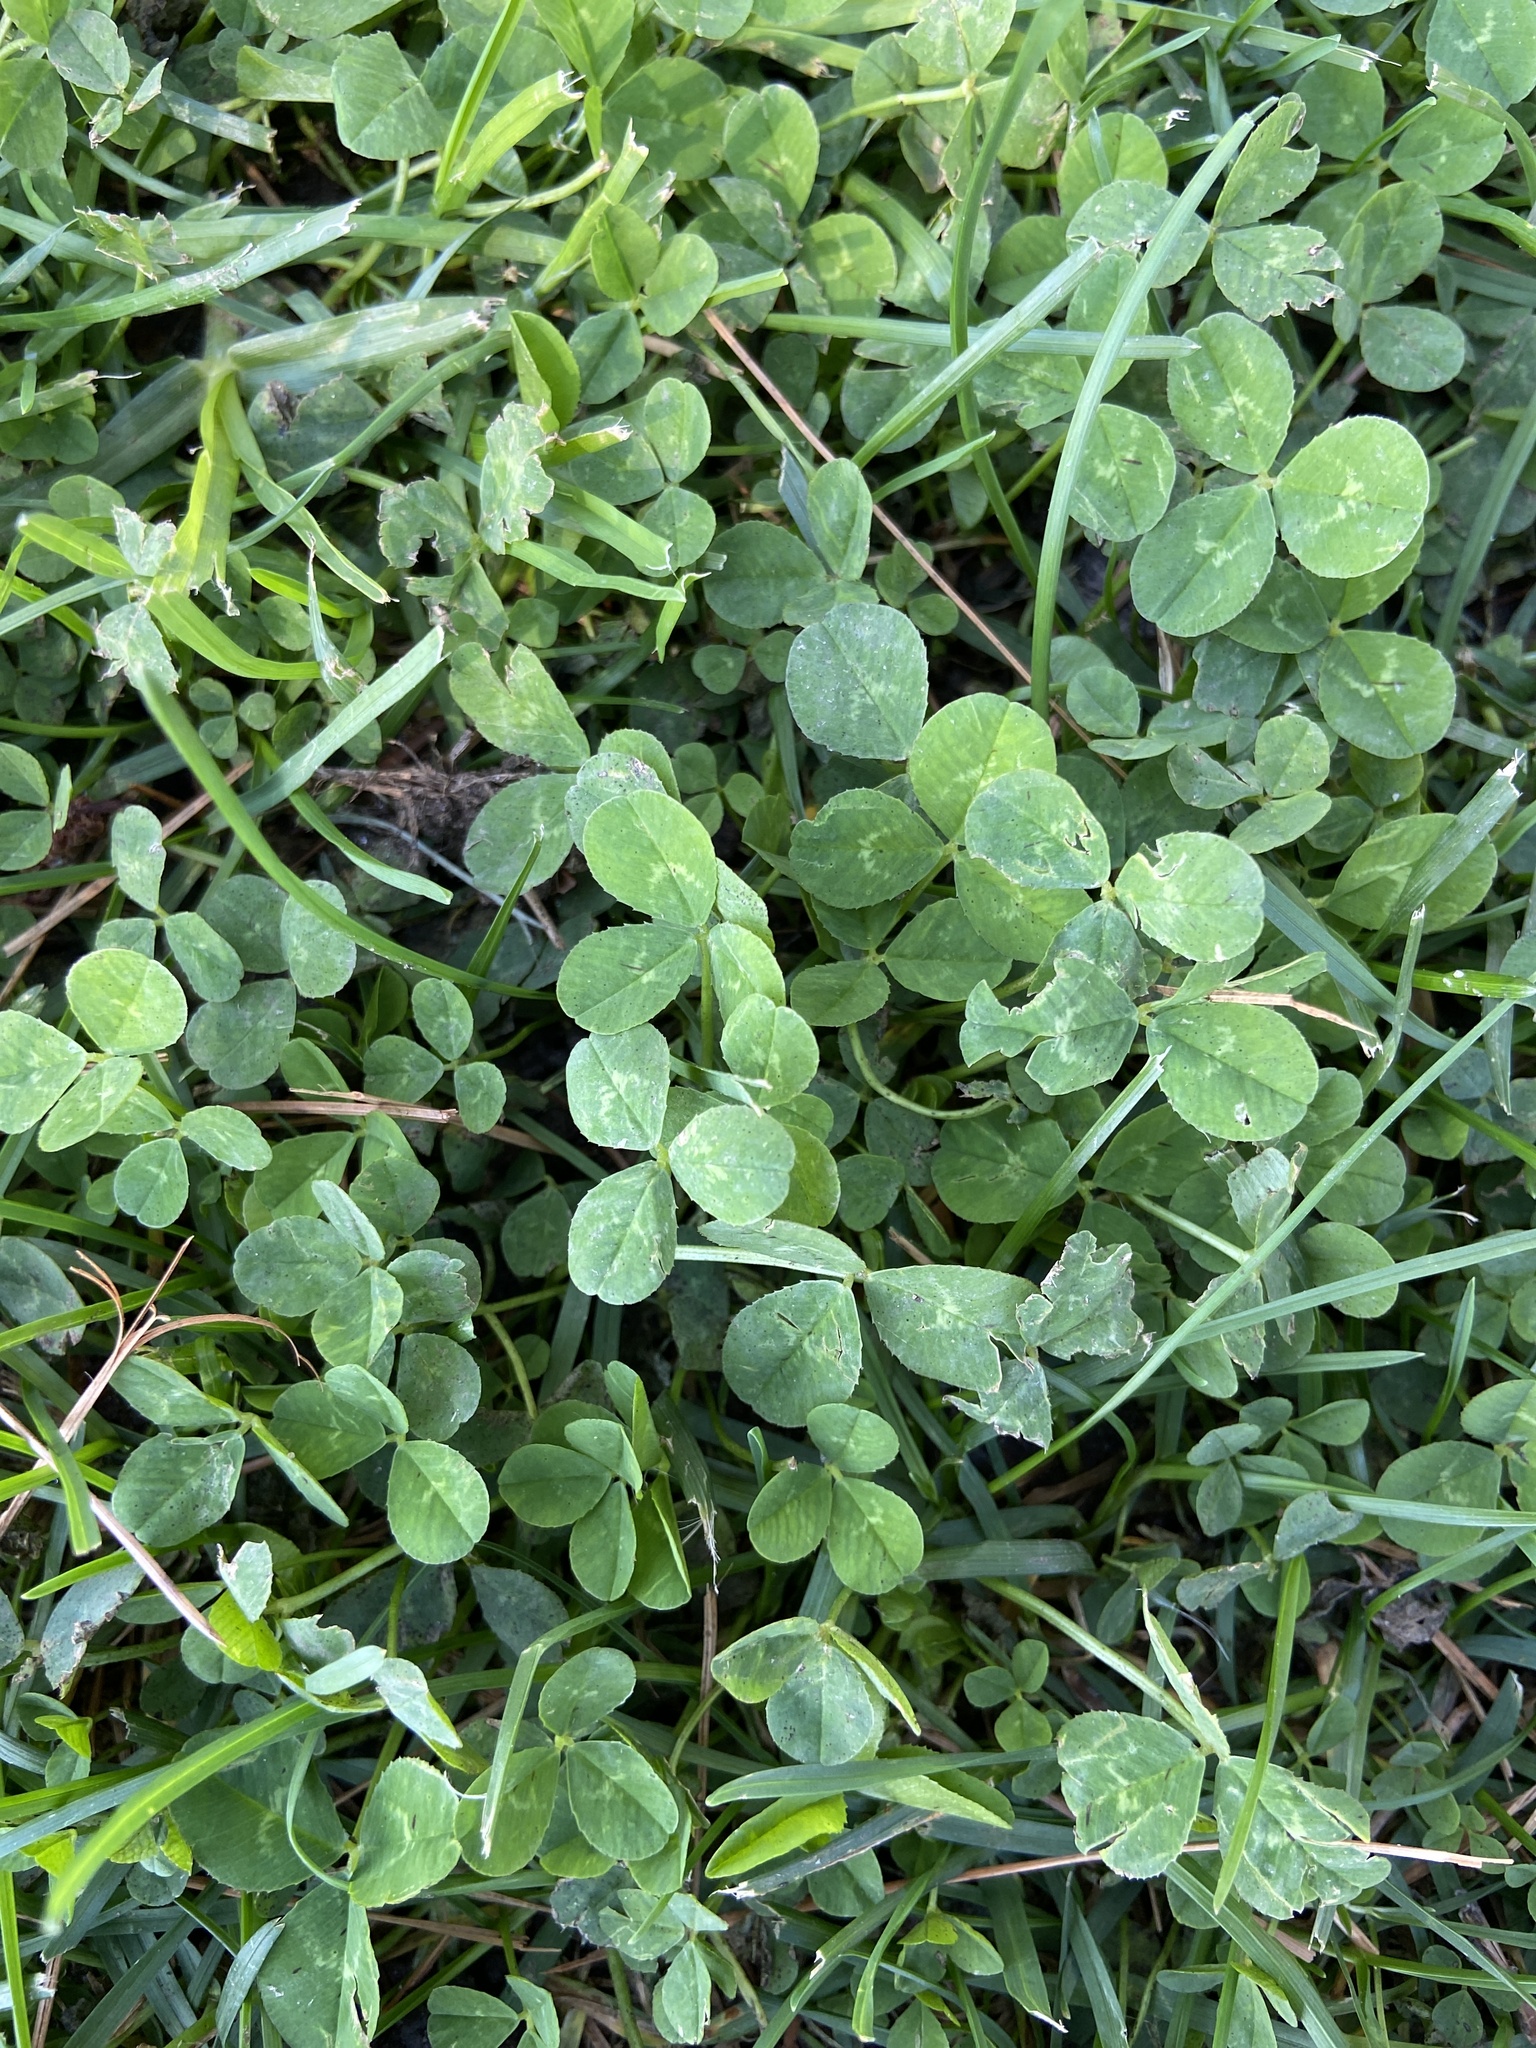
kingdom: Plantae
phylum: Tracheophyta
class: Magnoliopsida
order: Fabales
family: Fabaceae
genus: Trifolium
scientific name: Trifolium repens
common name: White clover
